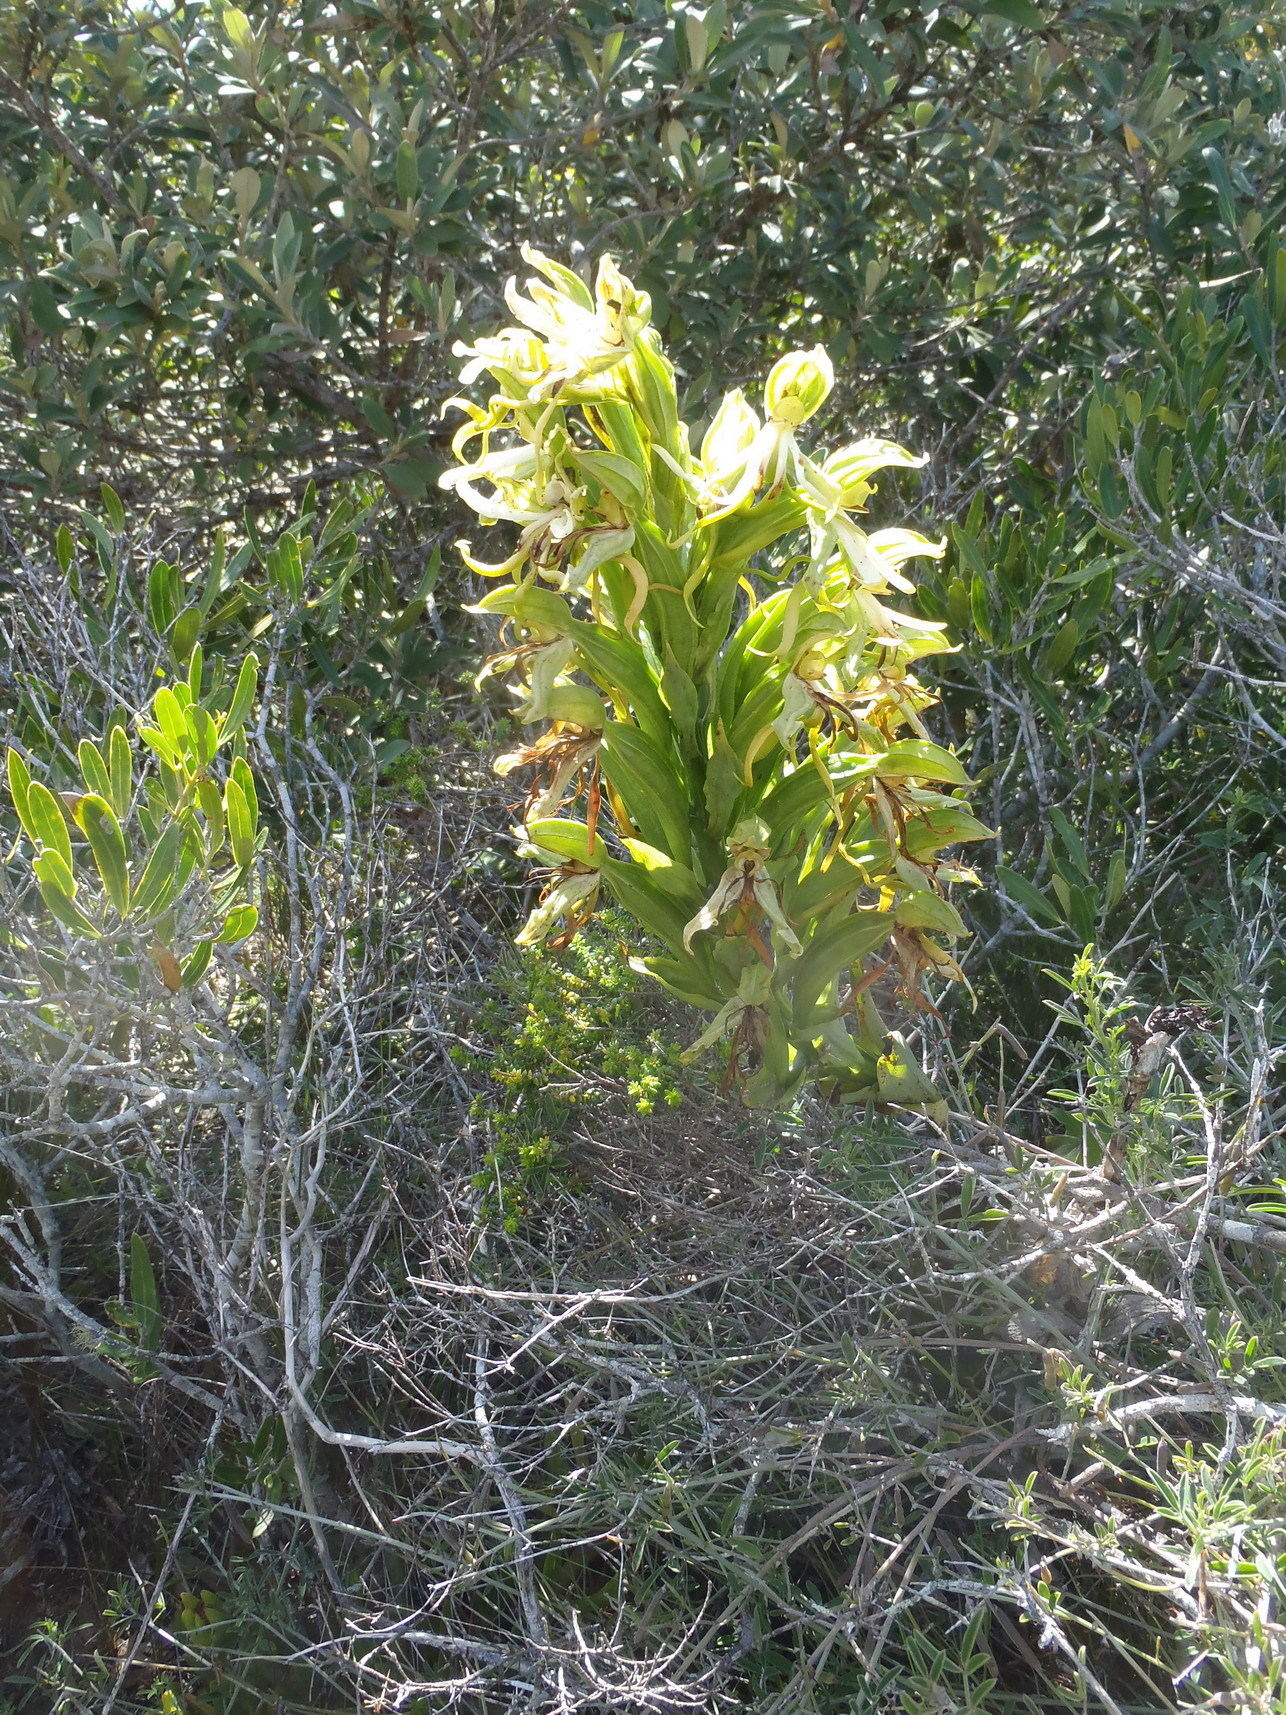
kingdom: Plantae
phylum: Tracheophyta
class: Liliopsida
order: Asparagales
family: Orchidaceae
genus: Bonatea
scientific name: Bonatea speciosa
